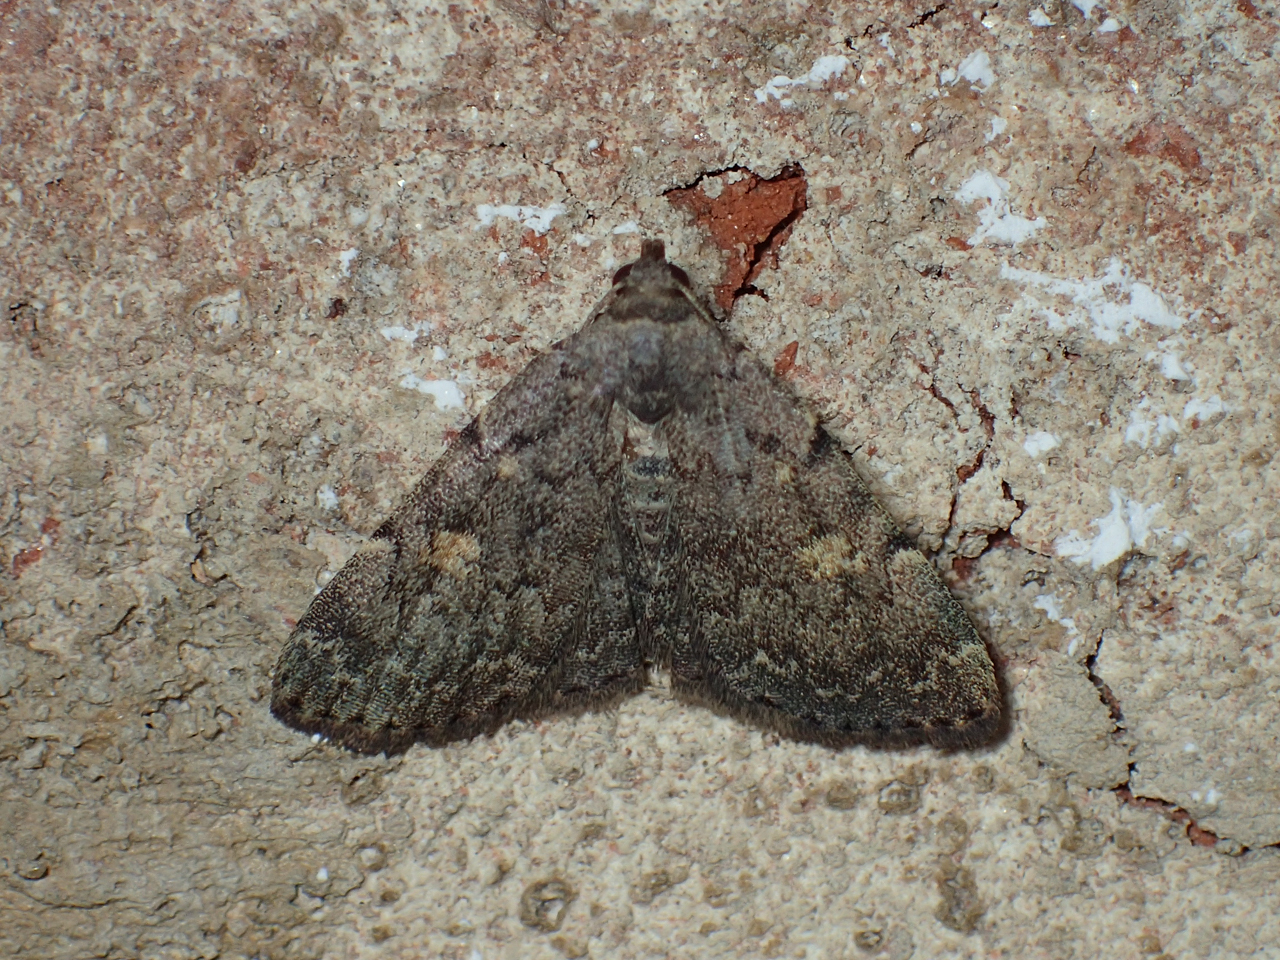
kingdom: Animalia
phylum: Arthropoda
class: Insecta
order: Lepidoptera
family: Erebidae
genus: Idia
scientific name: Idia aemula
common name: Common idia moth
